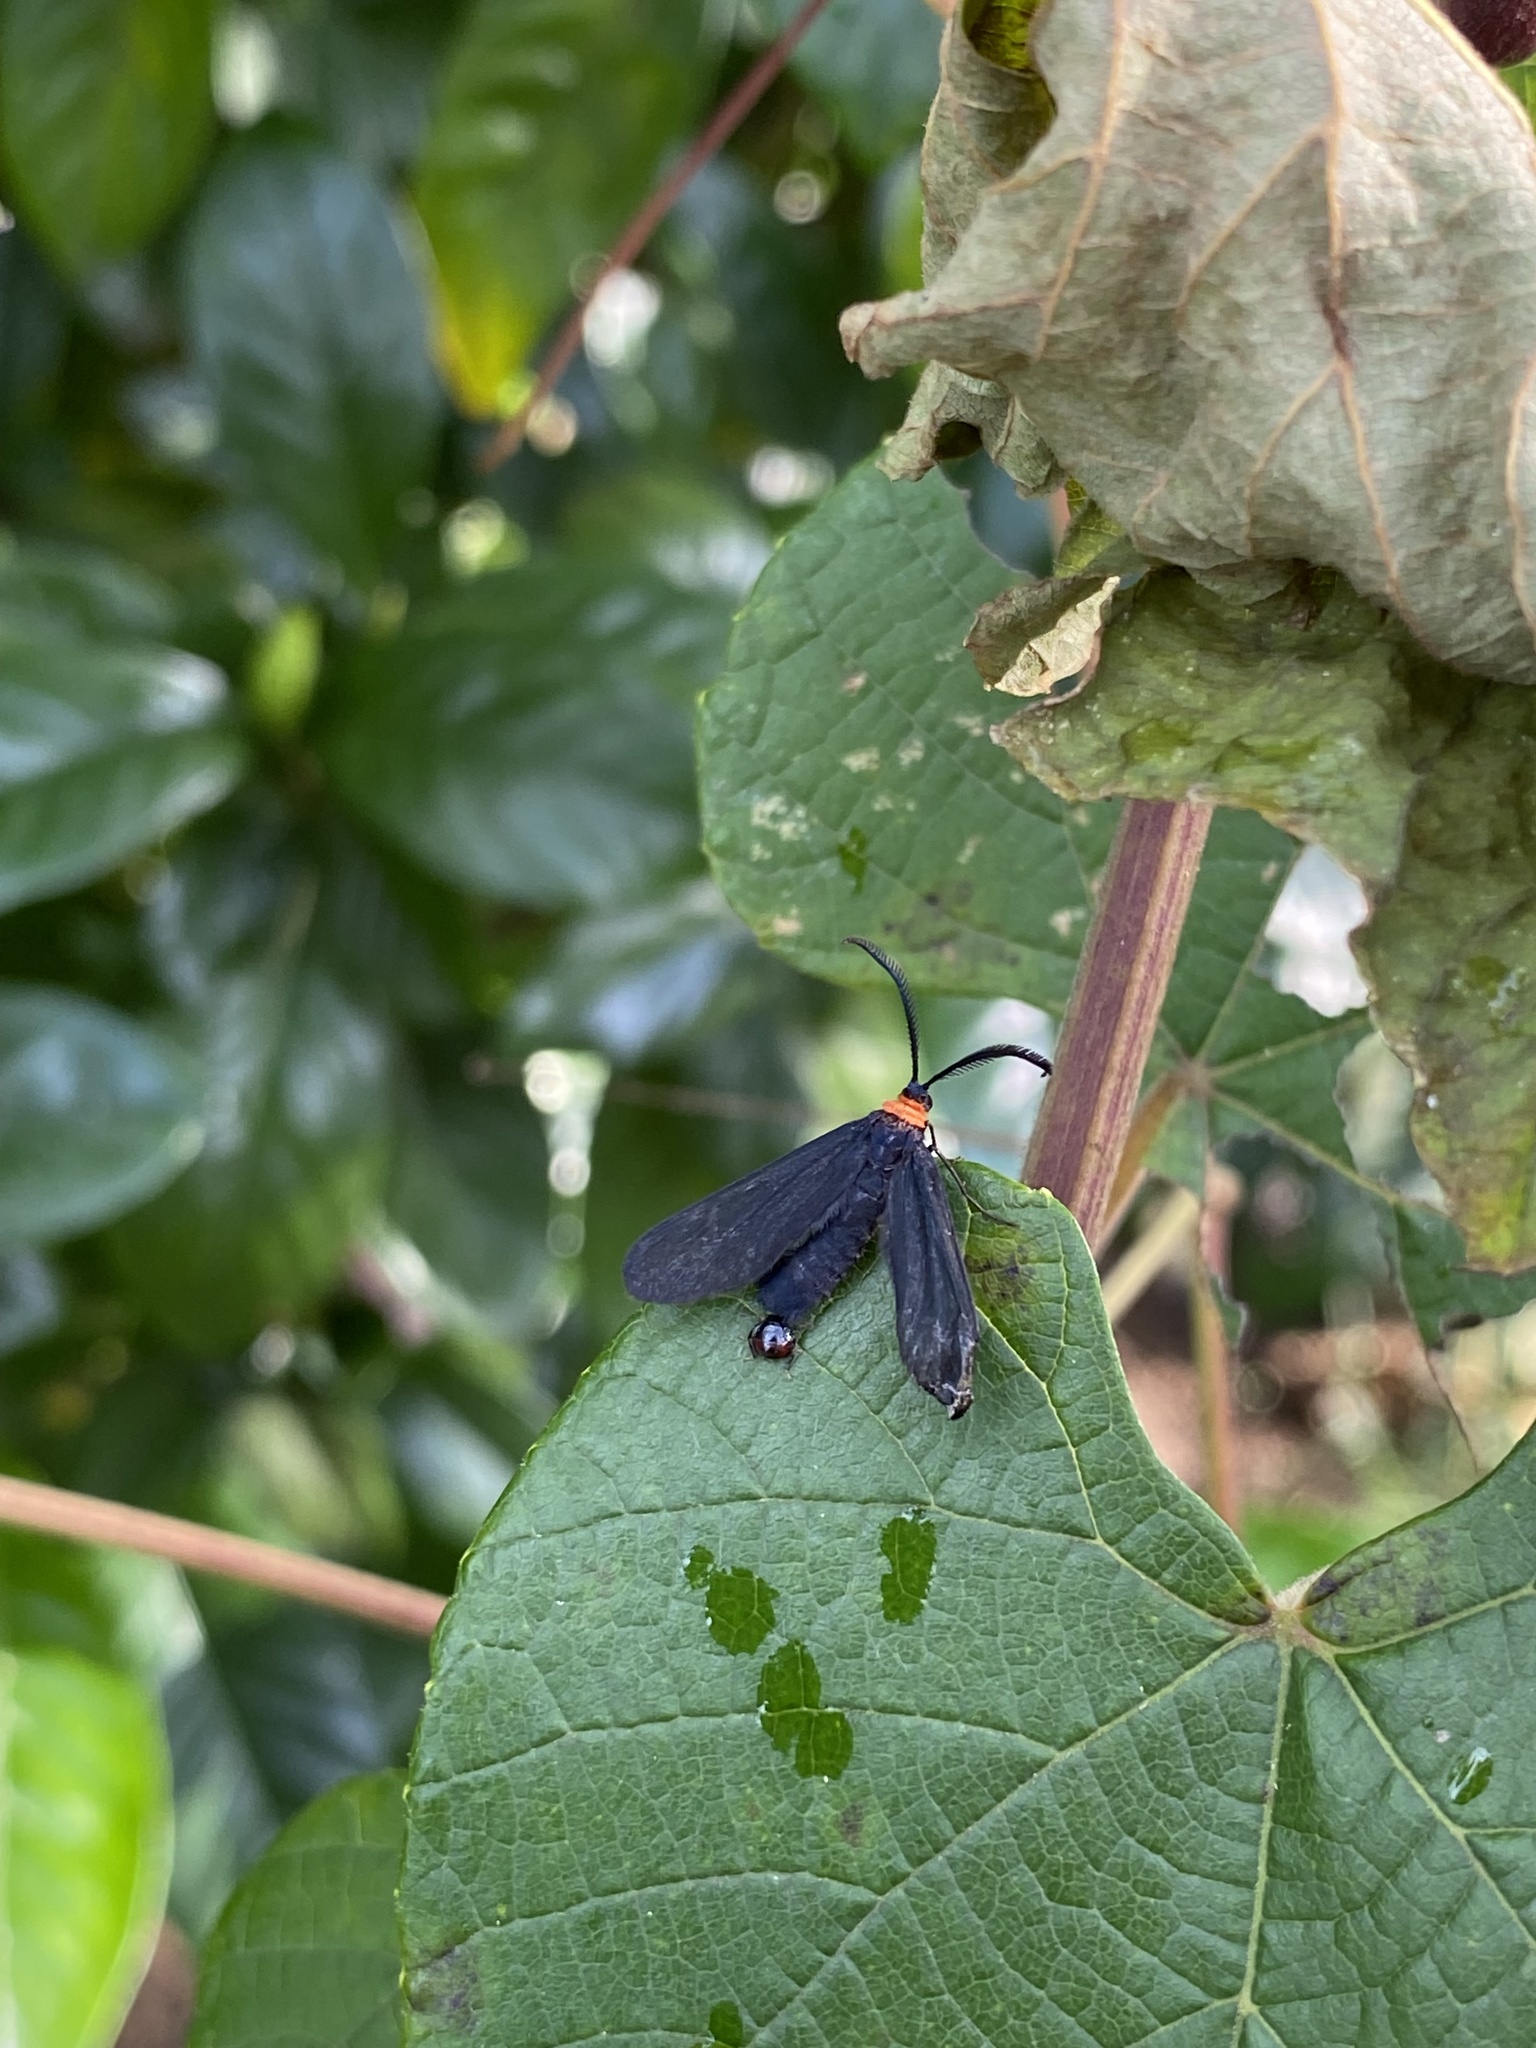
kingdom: Animalia
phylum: Arthropoda
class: Insecta
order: Lepidoptera
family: Zygaenidae
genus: Harrisina
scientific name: Harrisina americana
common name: Grapeleaf skeletonizer moth
